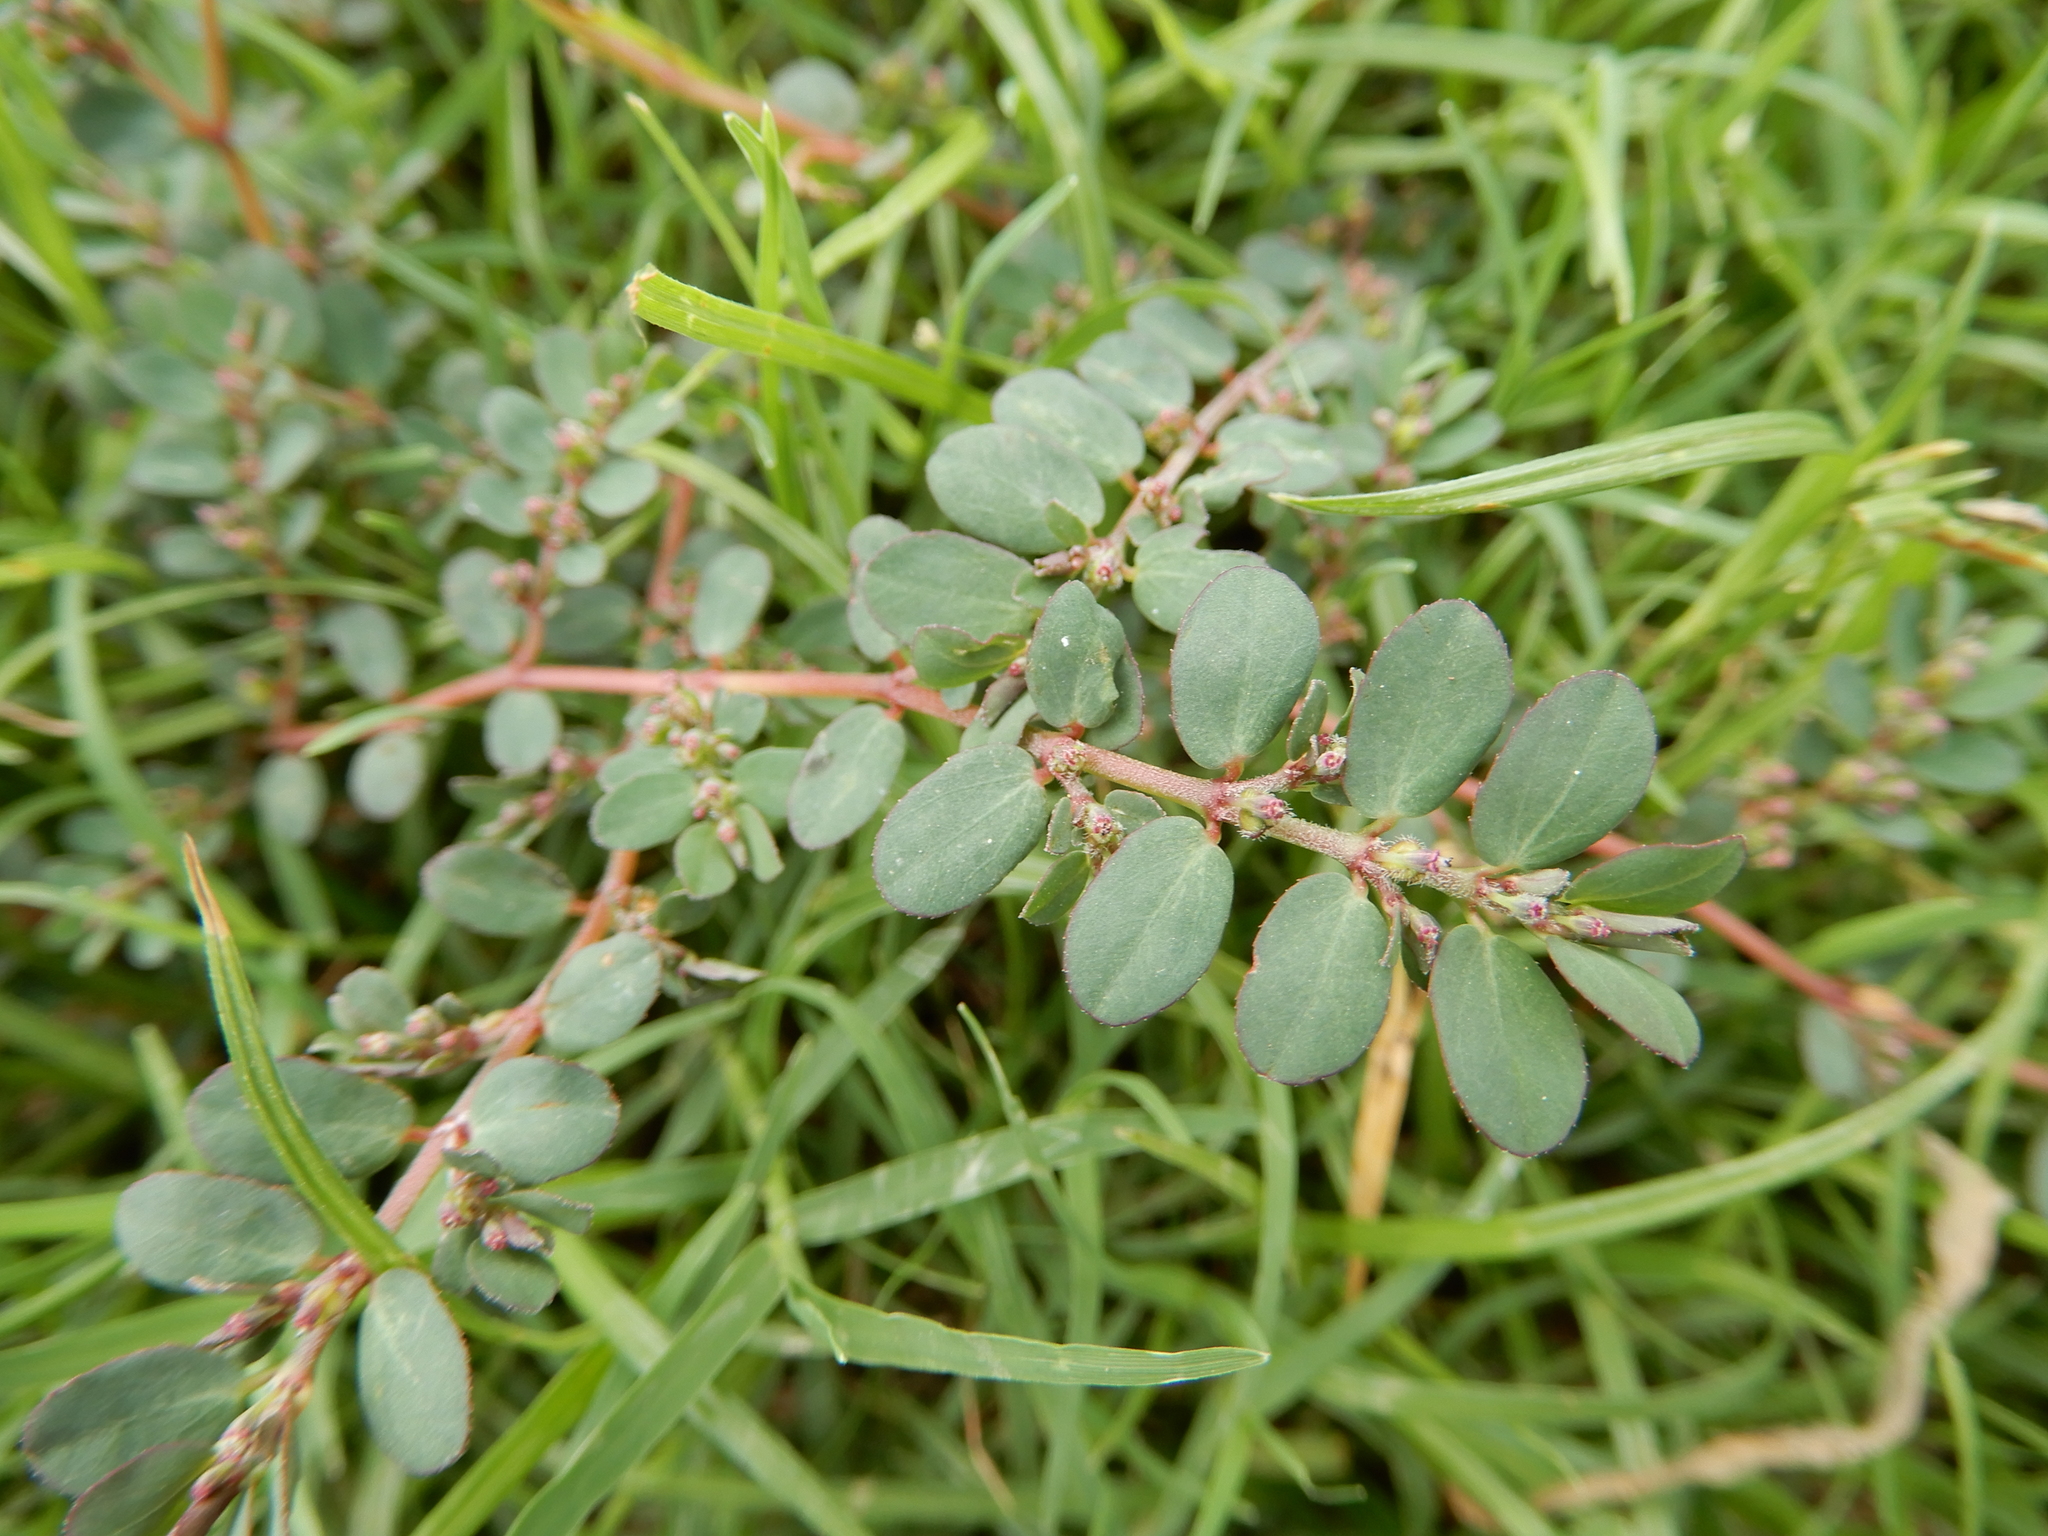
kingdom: Plantae
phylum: Tracheophyta
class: Magnoliopsida
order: Malpighiales
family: Euphorbiaceae
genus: Euphorbia
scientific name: Euphorbia prostrata
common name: Prostrate sandmat
